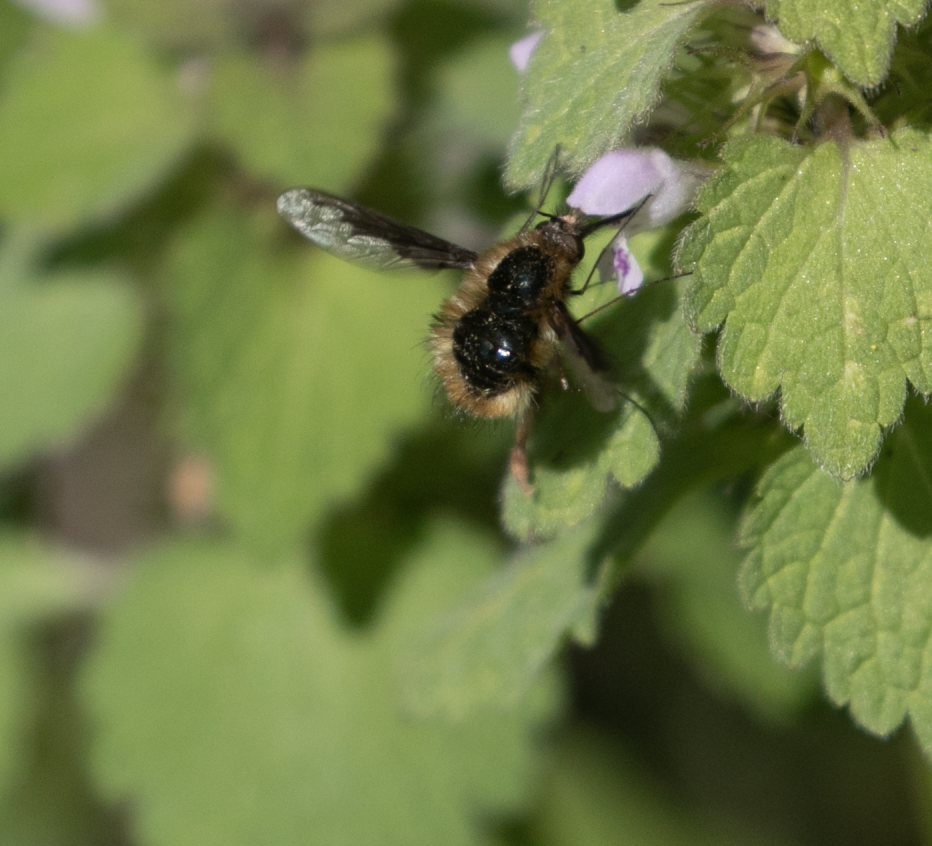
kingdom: Animalia
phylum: Arthropoda
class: Insecta
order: Diptera
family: Bombyliidae
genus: Bombylius
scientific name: Bombylius major
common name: Bee fly
